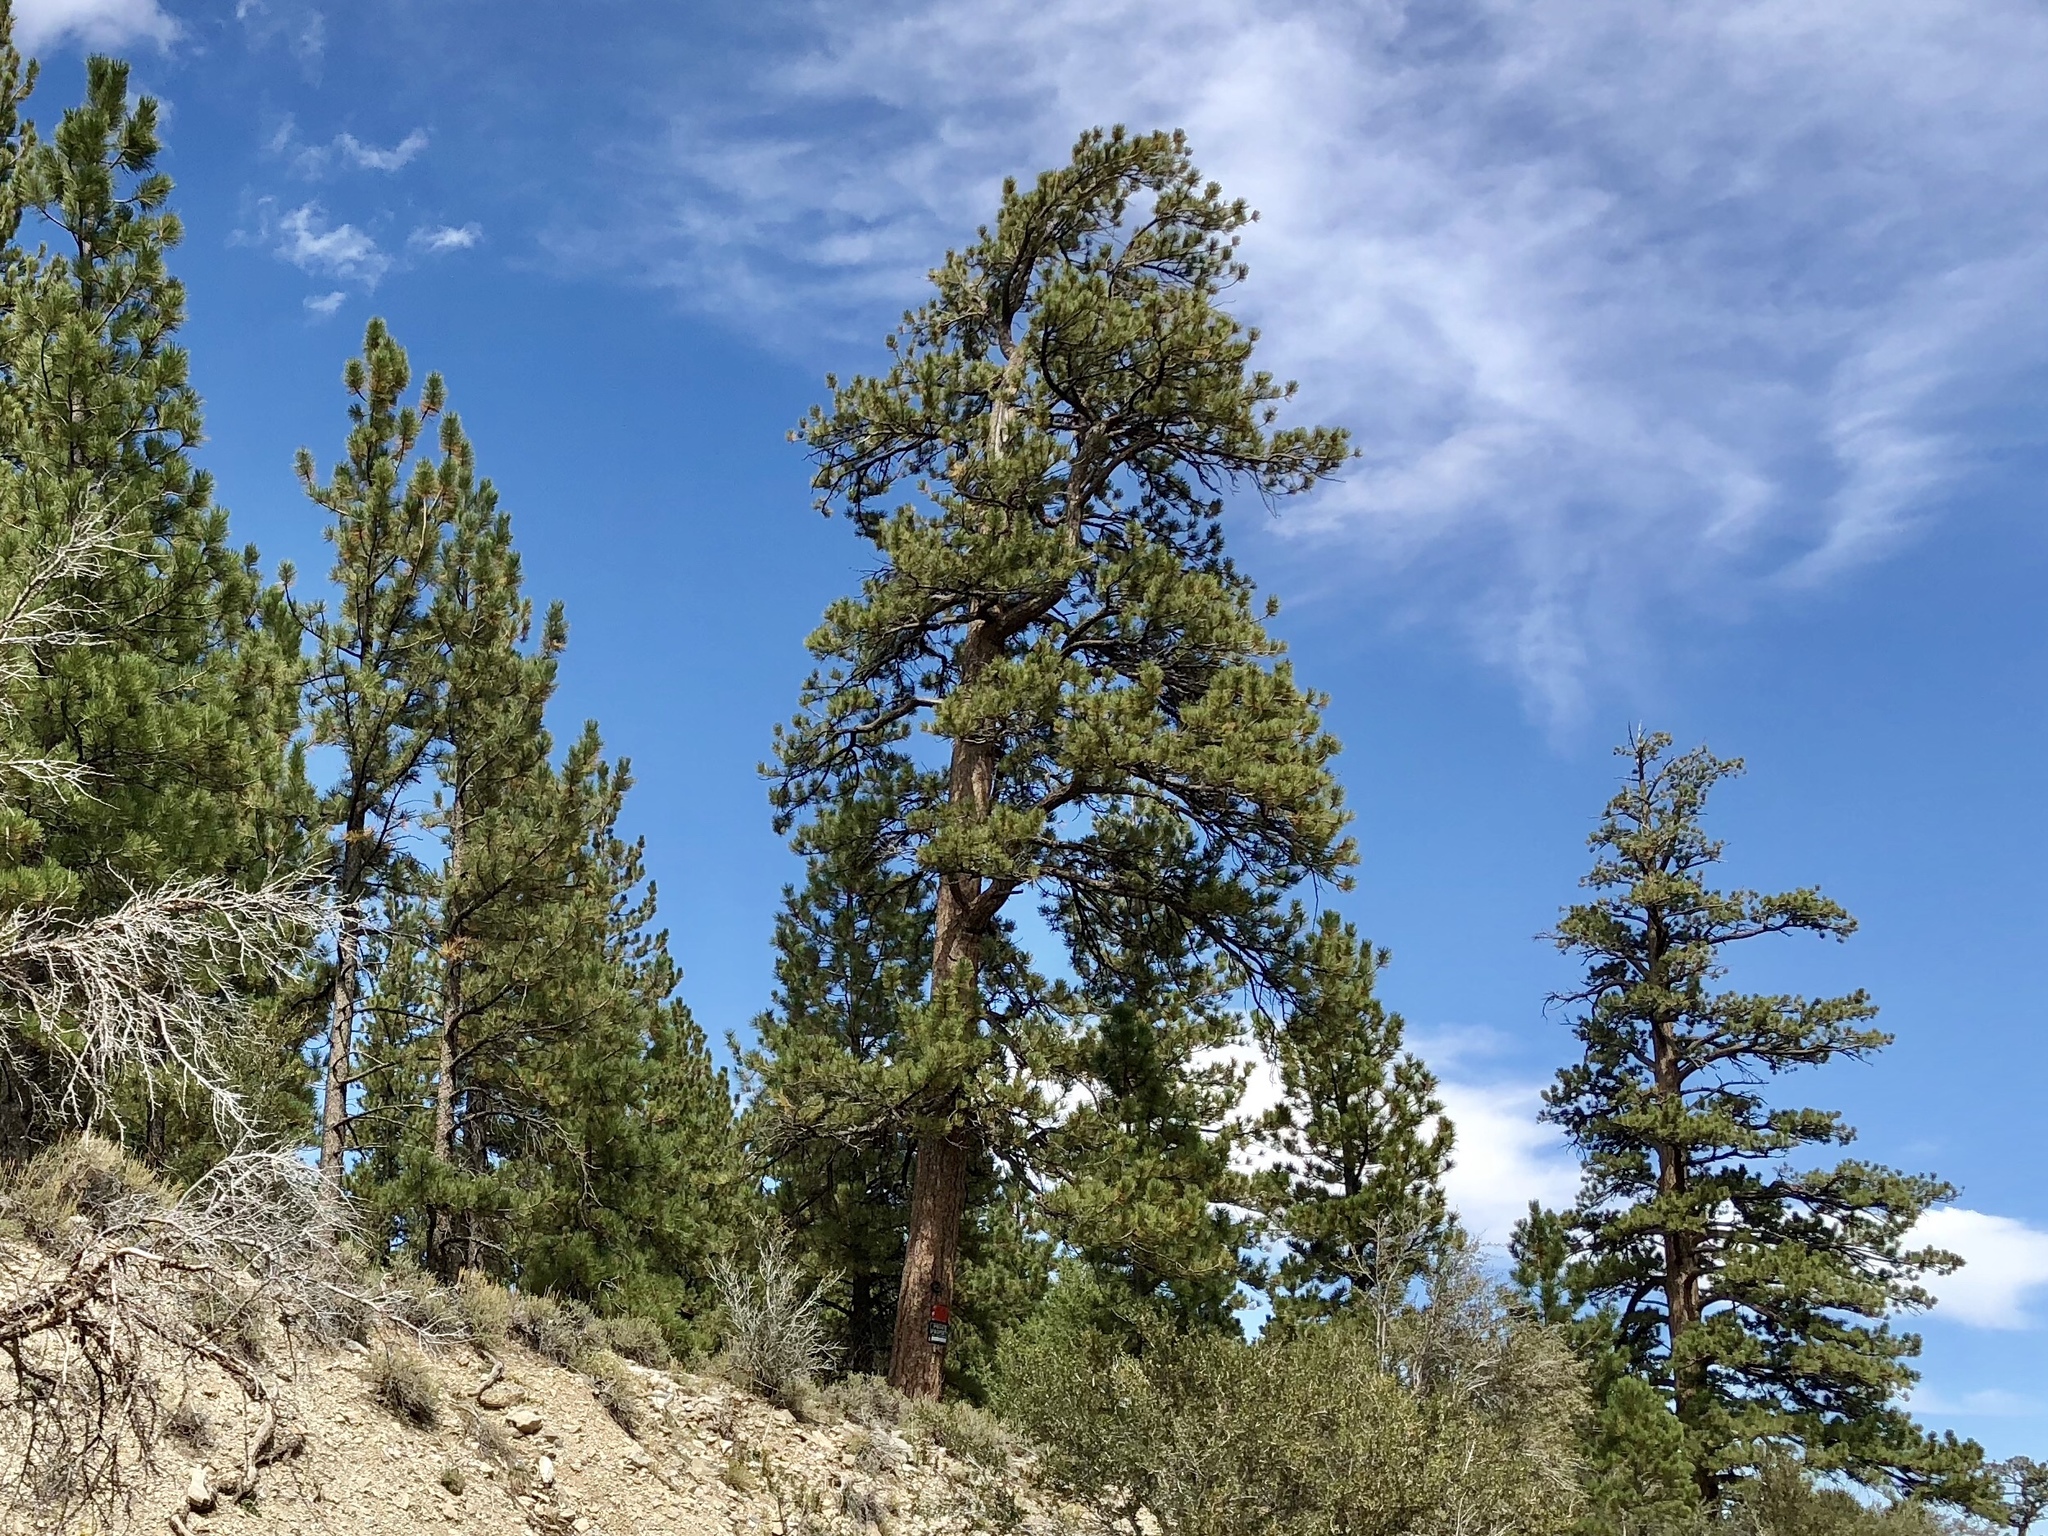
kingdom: Plantae
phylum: Tracheophyta
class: Pinopsida
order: Pinales
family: Pinaceae
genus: Pinus
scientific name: Pinus ponderosa
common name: Western yellow-pine
